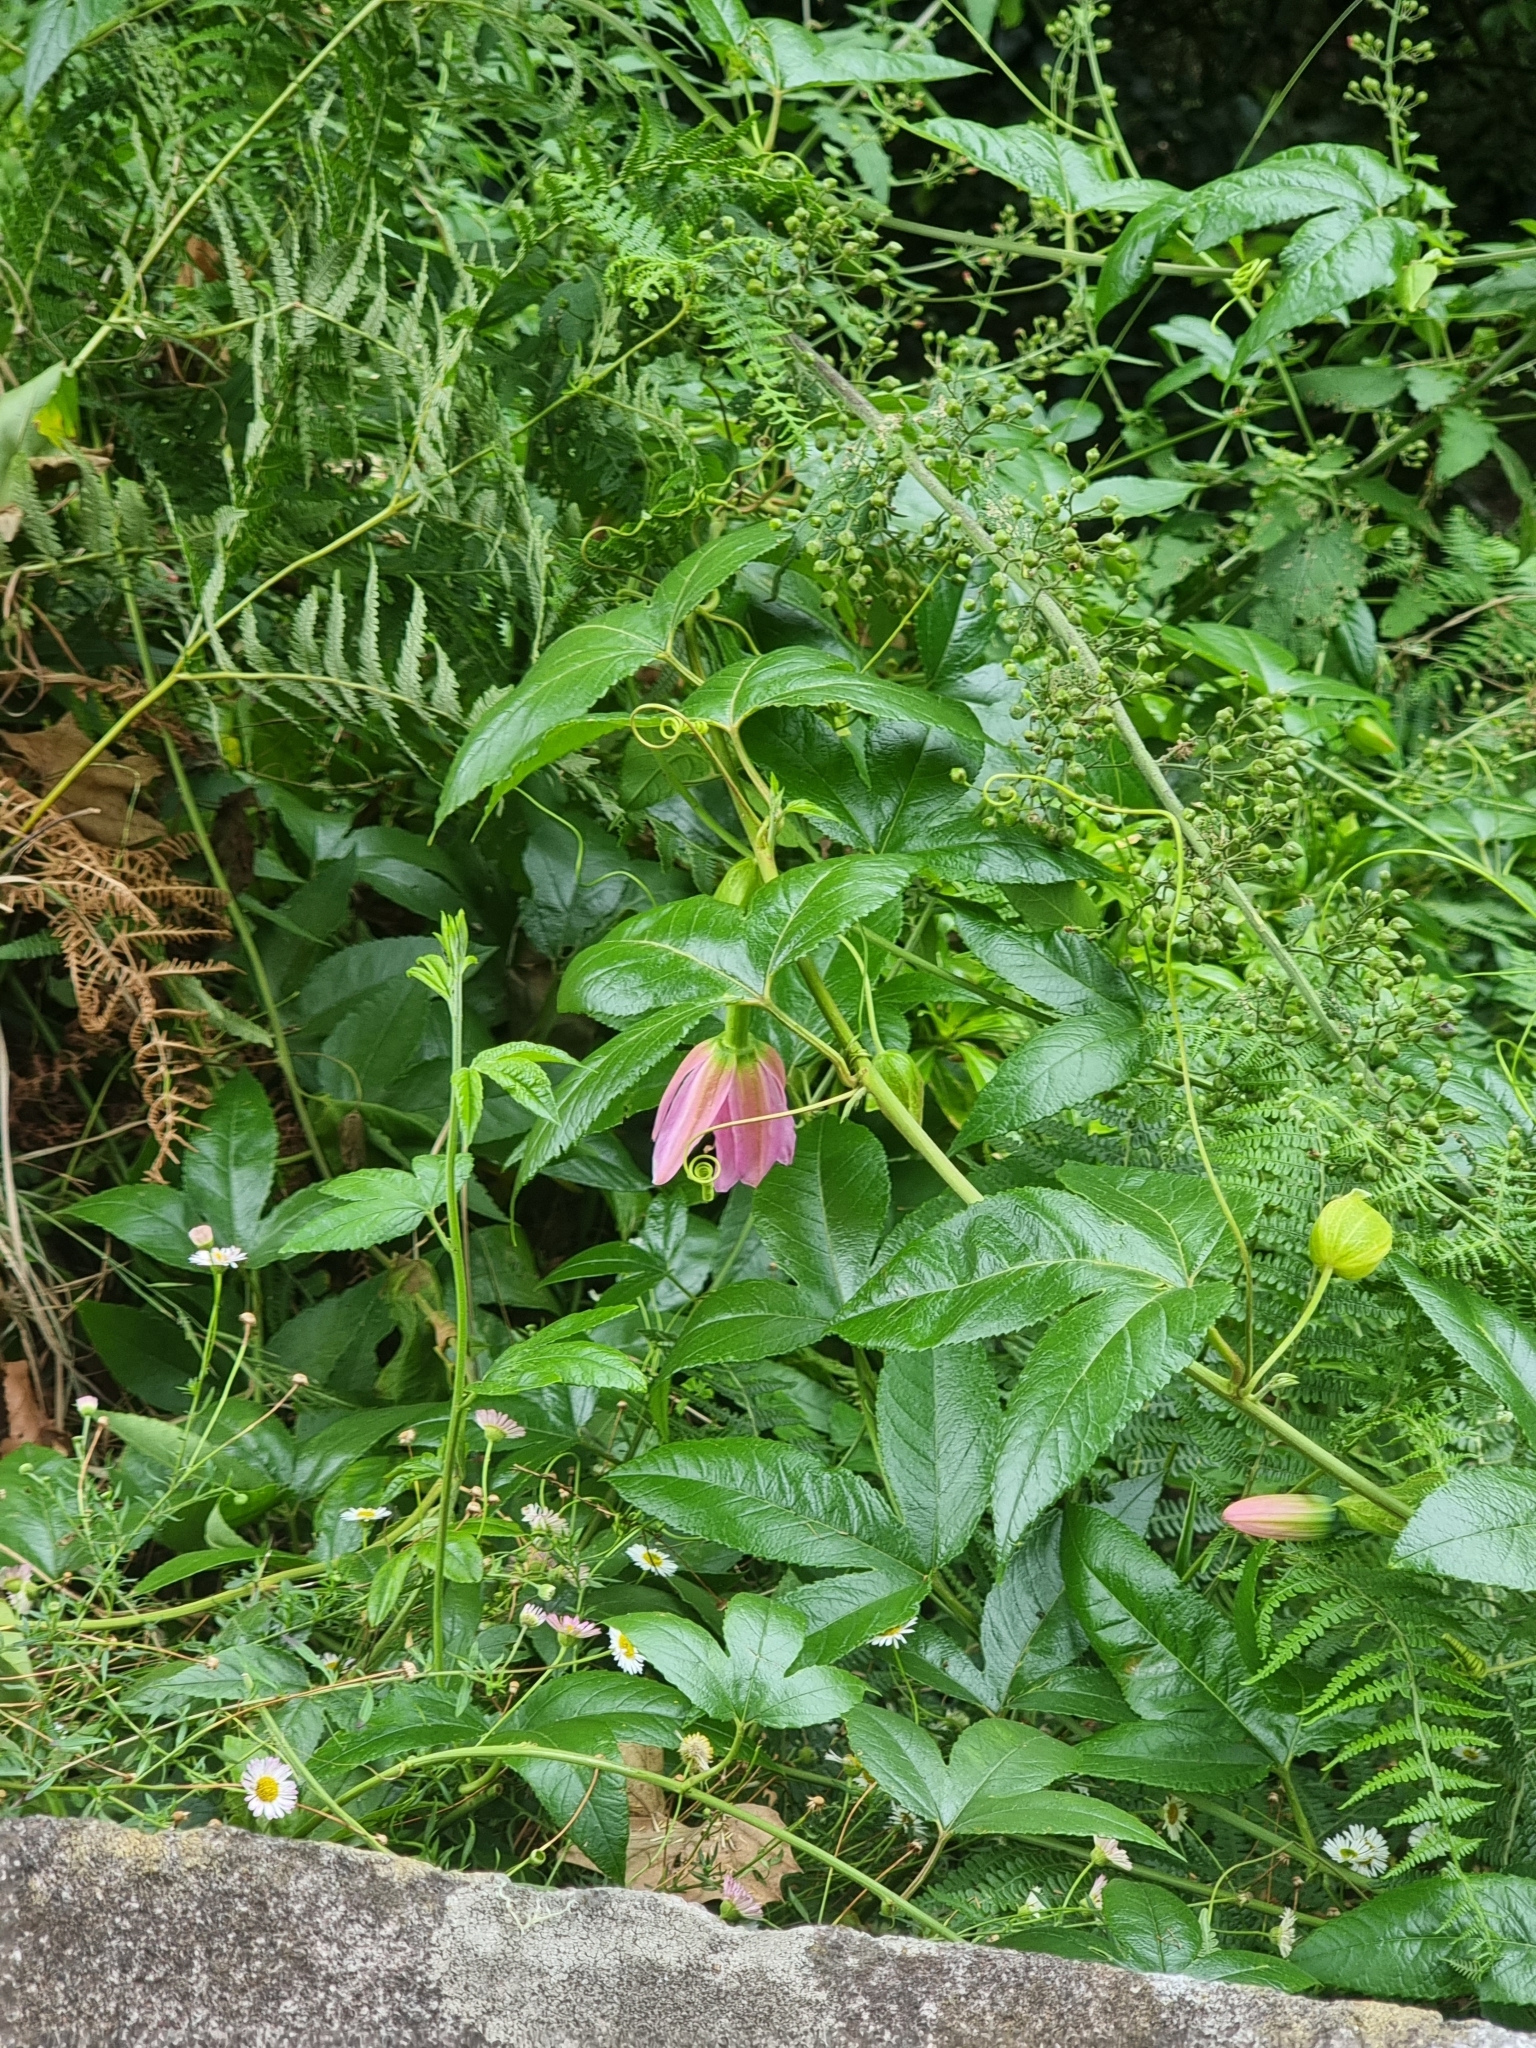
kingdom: Plantae
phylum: Tracheophyta
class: Magnoliopsida
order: Malpighiales
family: Passifloraceae
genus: Passiflora
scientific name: Passiflora tarminiana
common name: Banana poka
